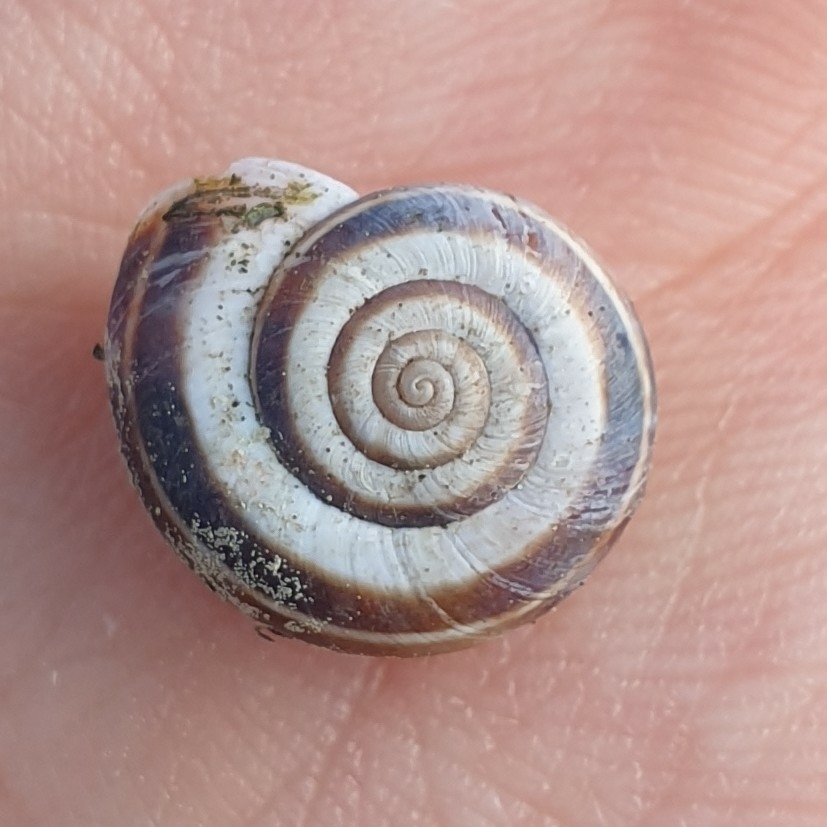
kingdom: Animalia
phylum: Mollusca
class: Gastropoda
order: Stylommatophora
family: Geomitridae
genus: Xerolenta
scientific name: Xerolenta obvia
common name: White heath snail
